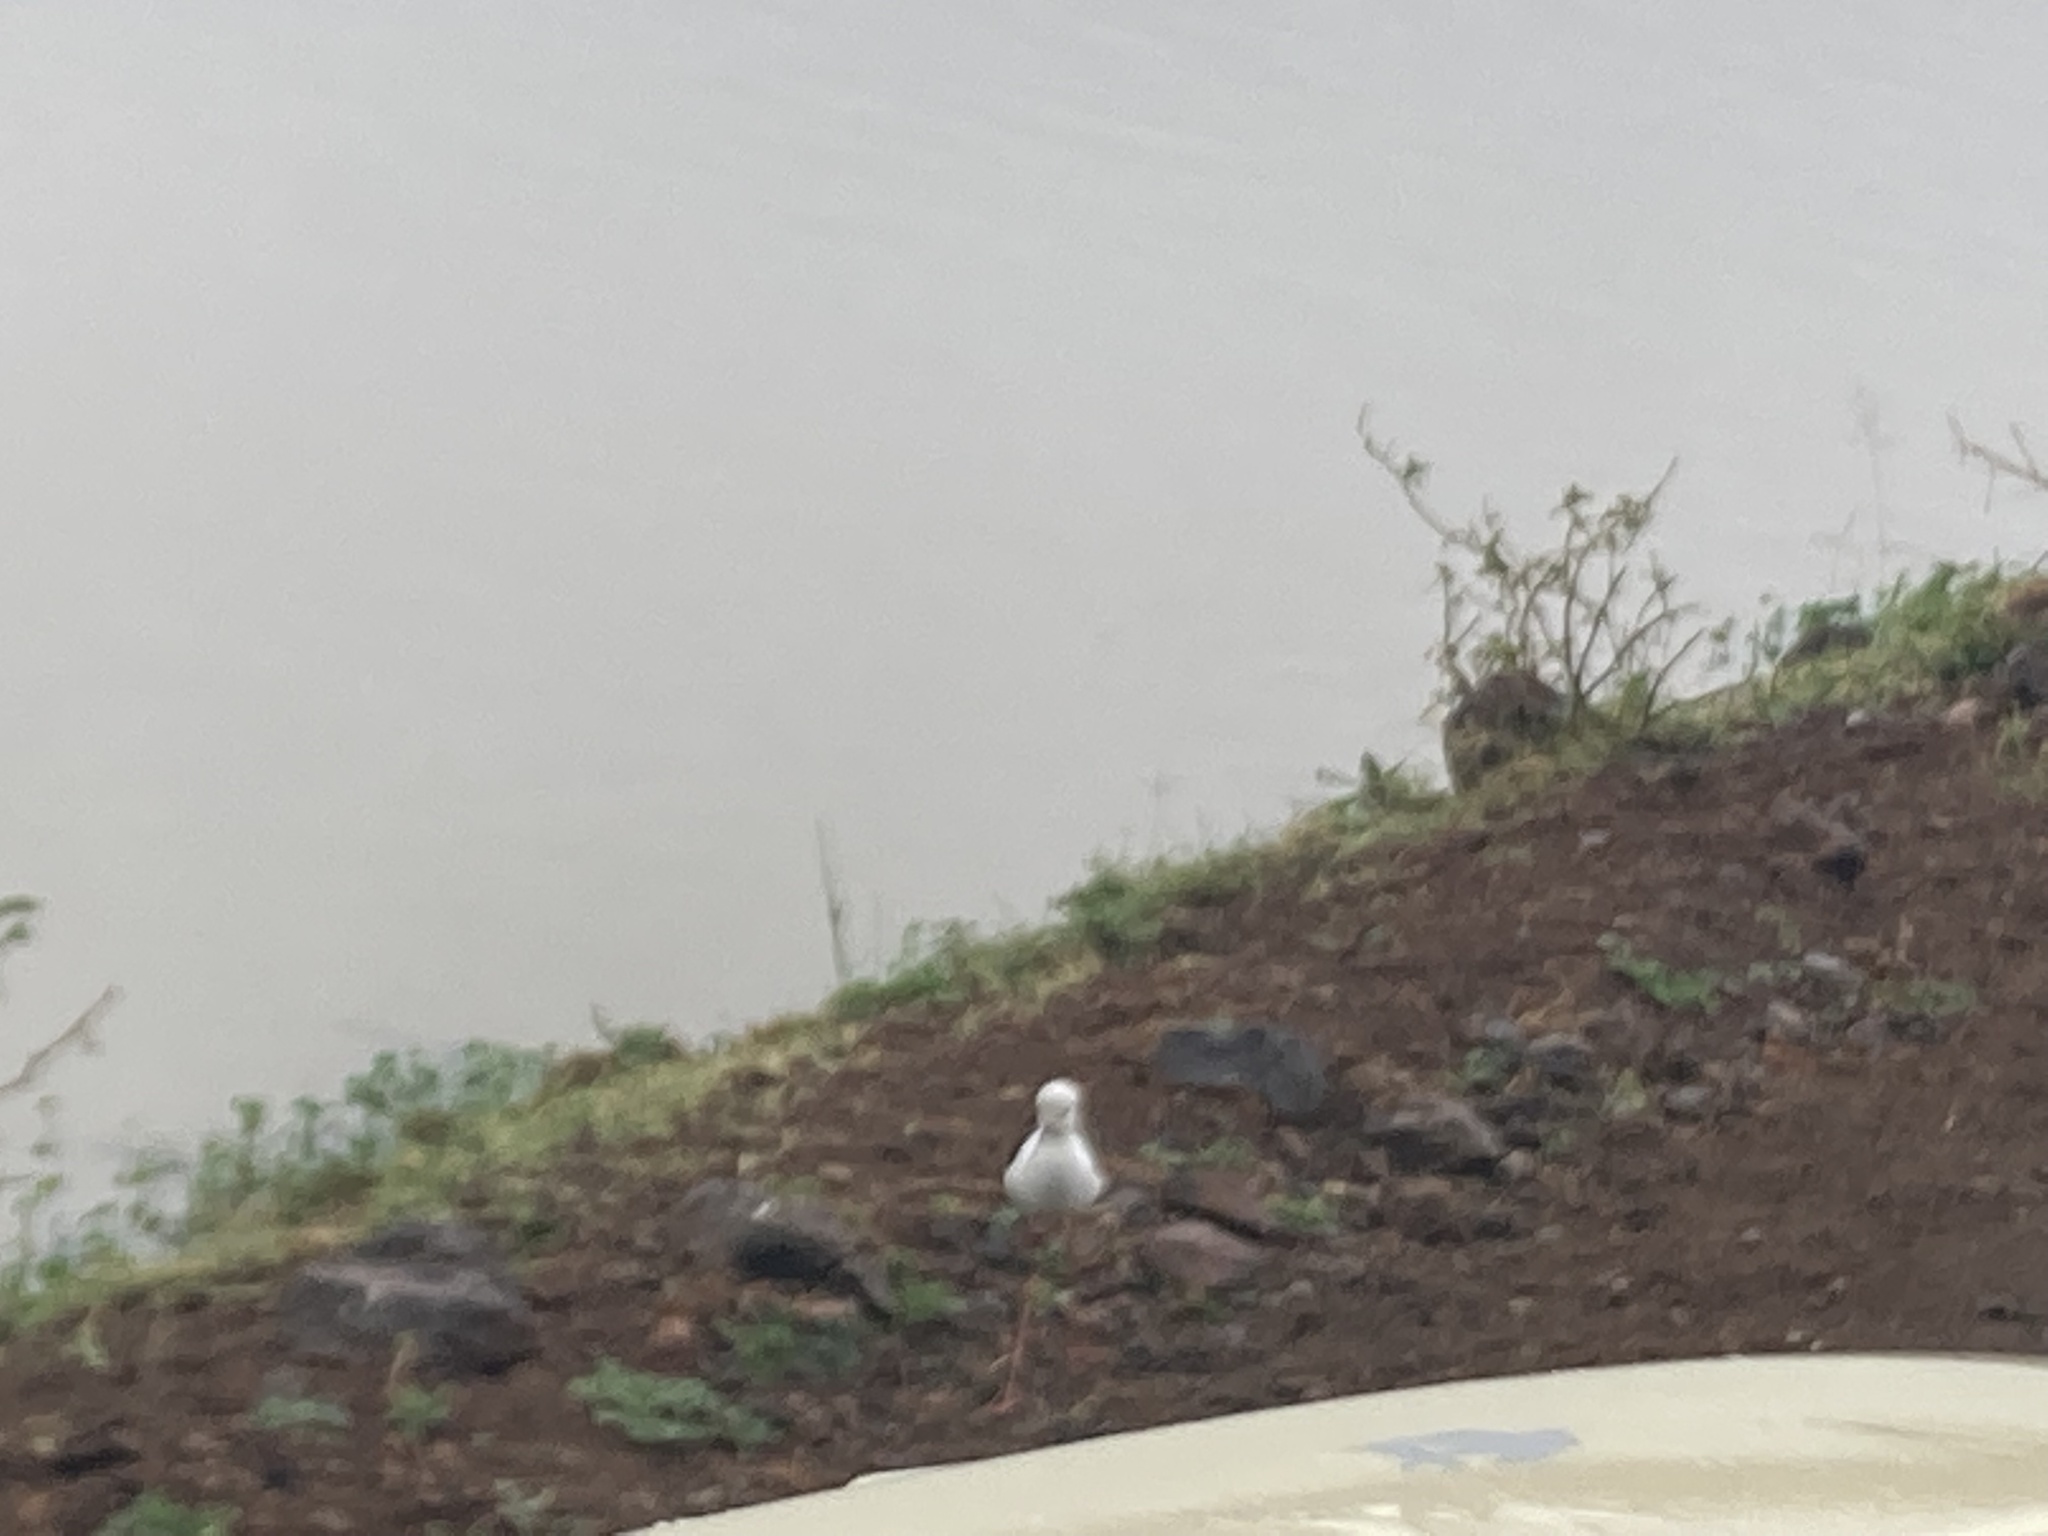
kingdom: Animalia
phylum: Chordata
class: Aves
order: Charadriiformes
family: Recurvirostridae
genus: Himantopus
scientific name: Himantopus himantopus
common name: Black-winged stilt
